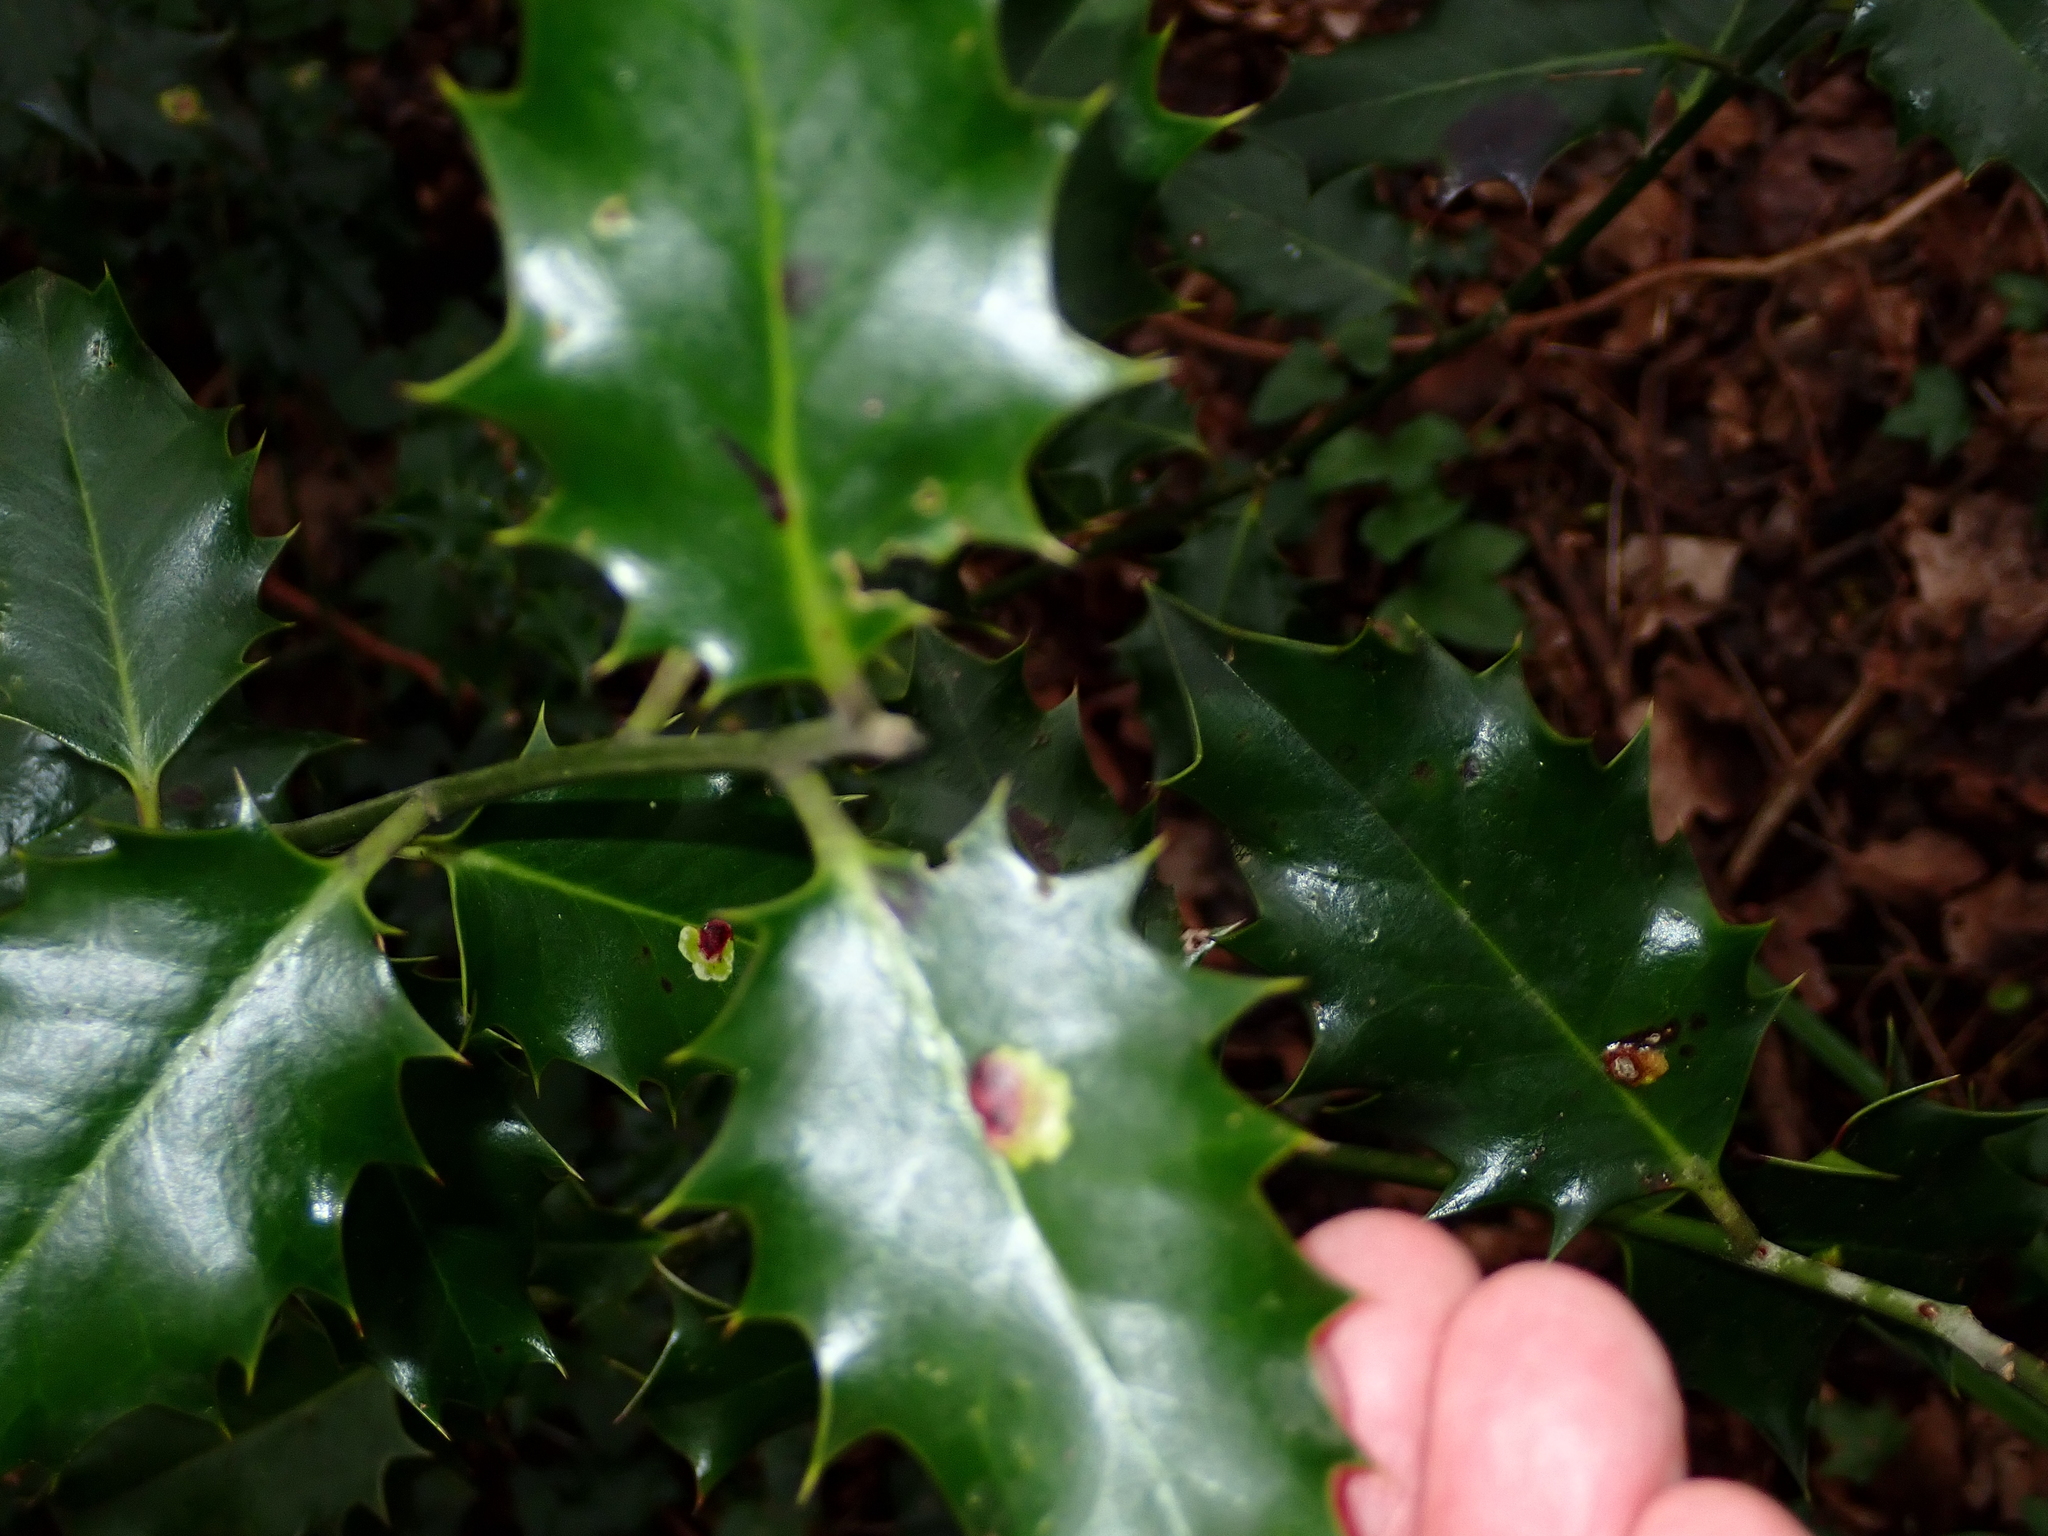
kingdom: Plantae
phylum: Tracheophyta
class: Magnoliopsida
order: Aquifoliales
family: Aquifoliaceae
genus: Ilex
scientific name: Ilex aquifolium
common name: English holly
